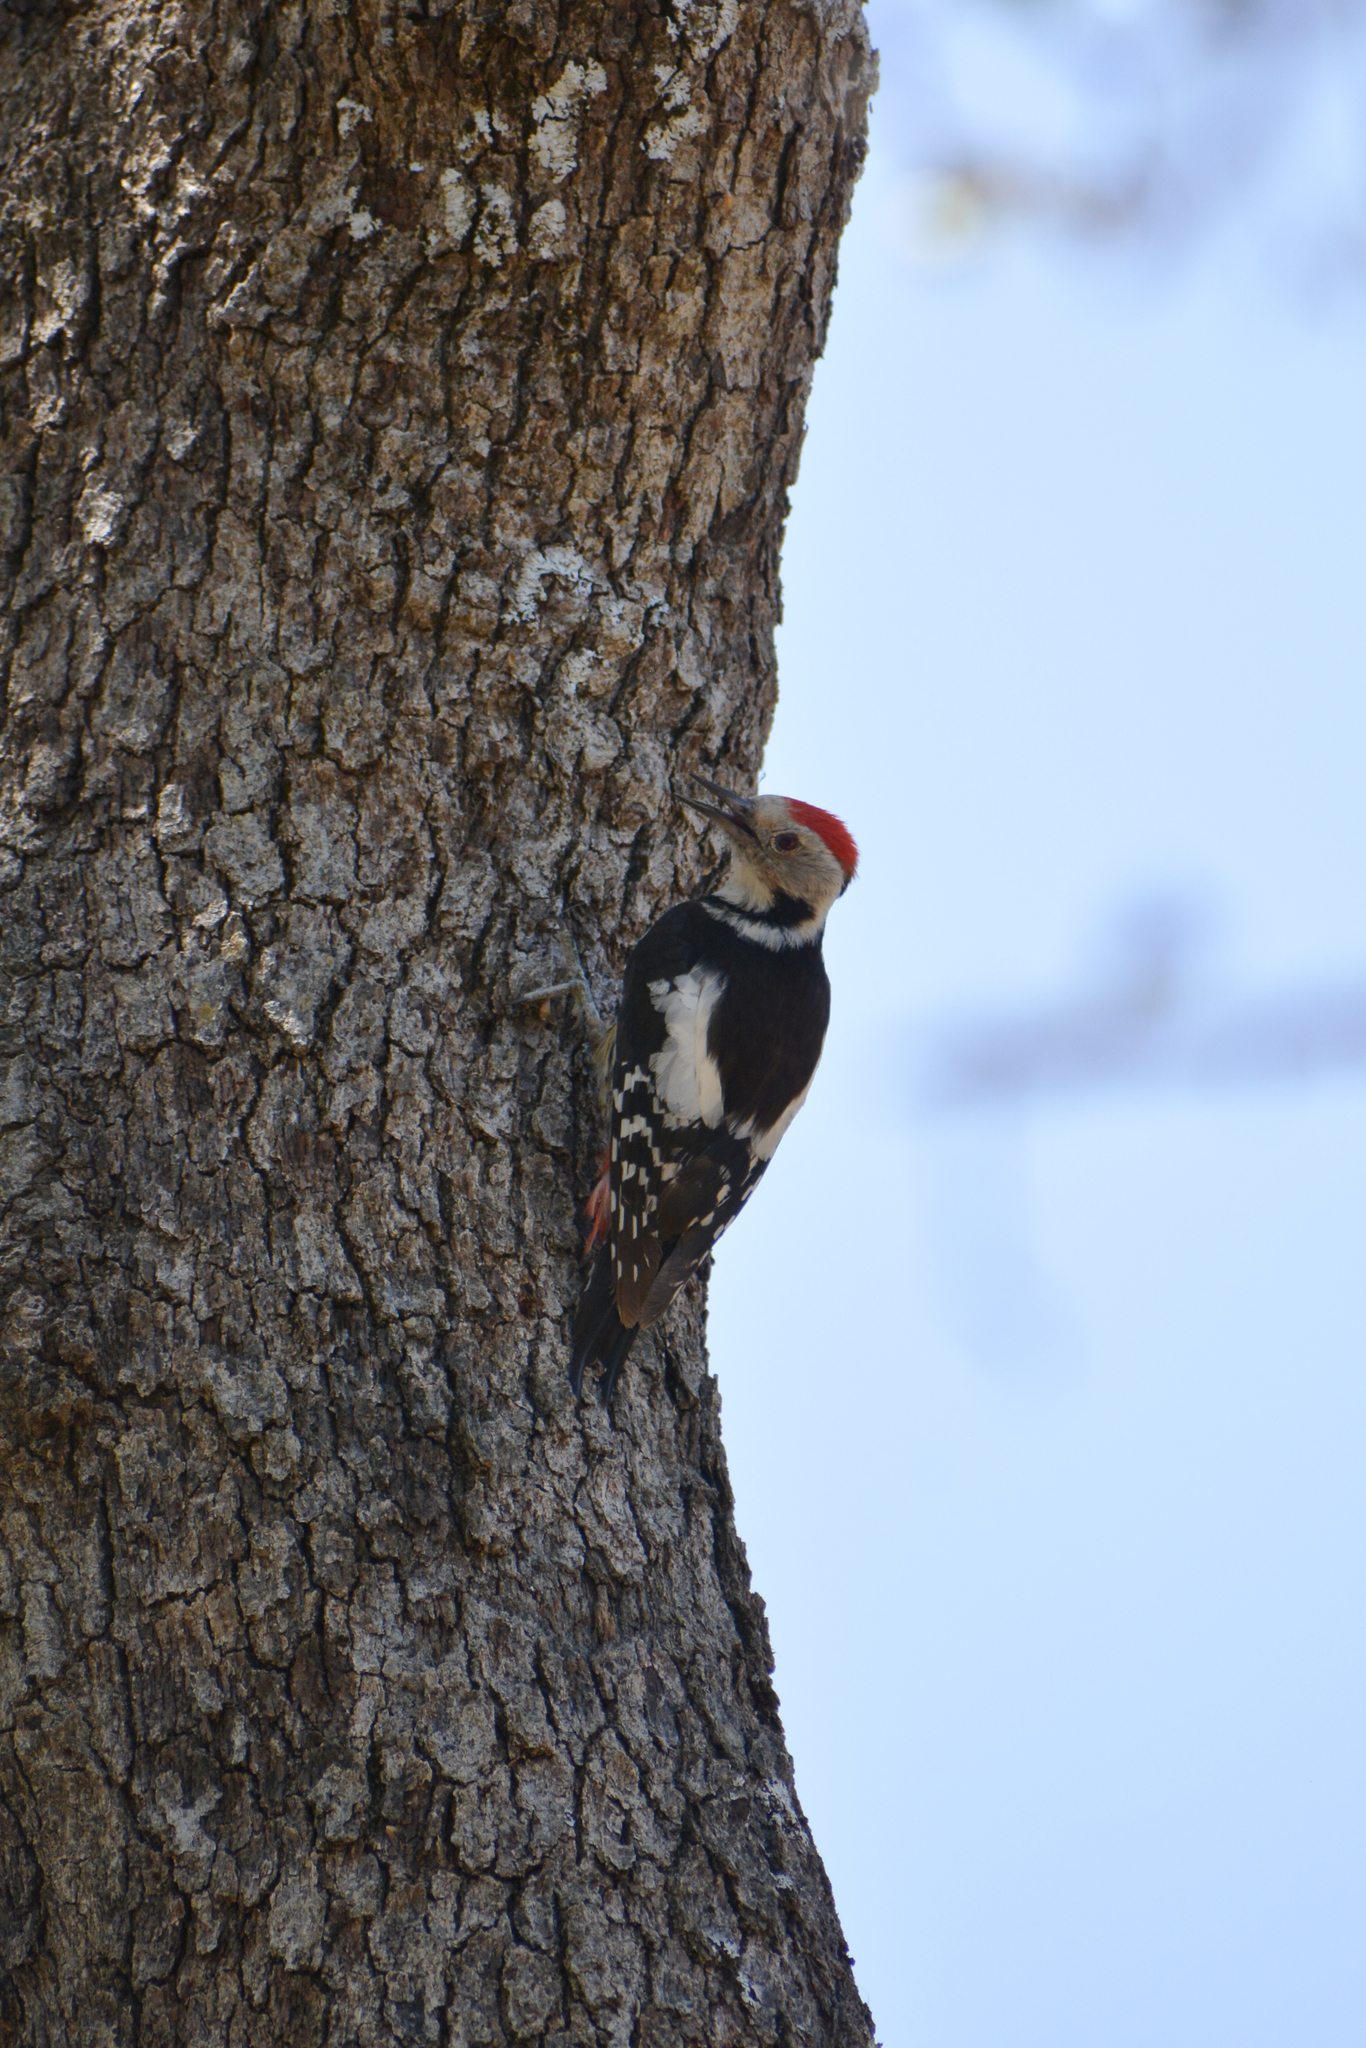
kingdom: Animalia
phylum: Chordata
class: Aves
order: Piciformes
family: Picidae
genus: Dendrocoptes
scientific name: Dendrocoptes medius
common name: Middle spotted woodpecker
